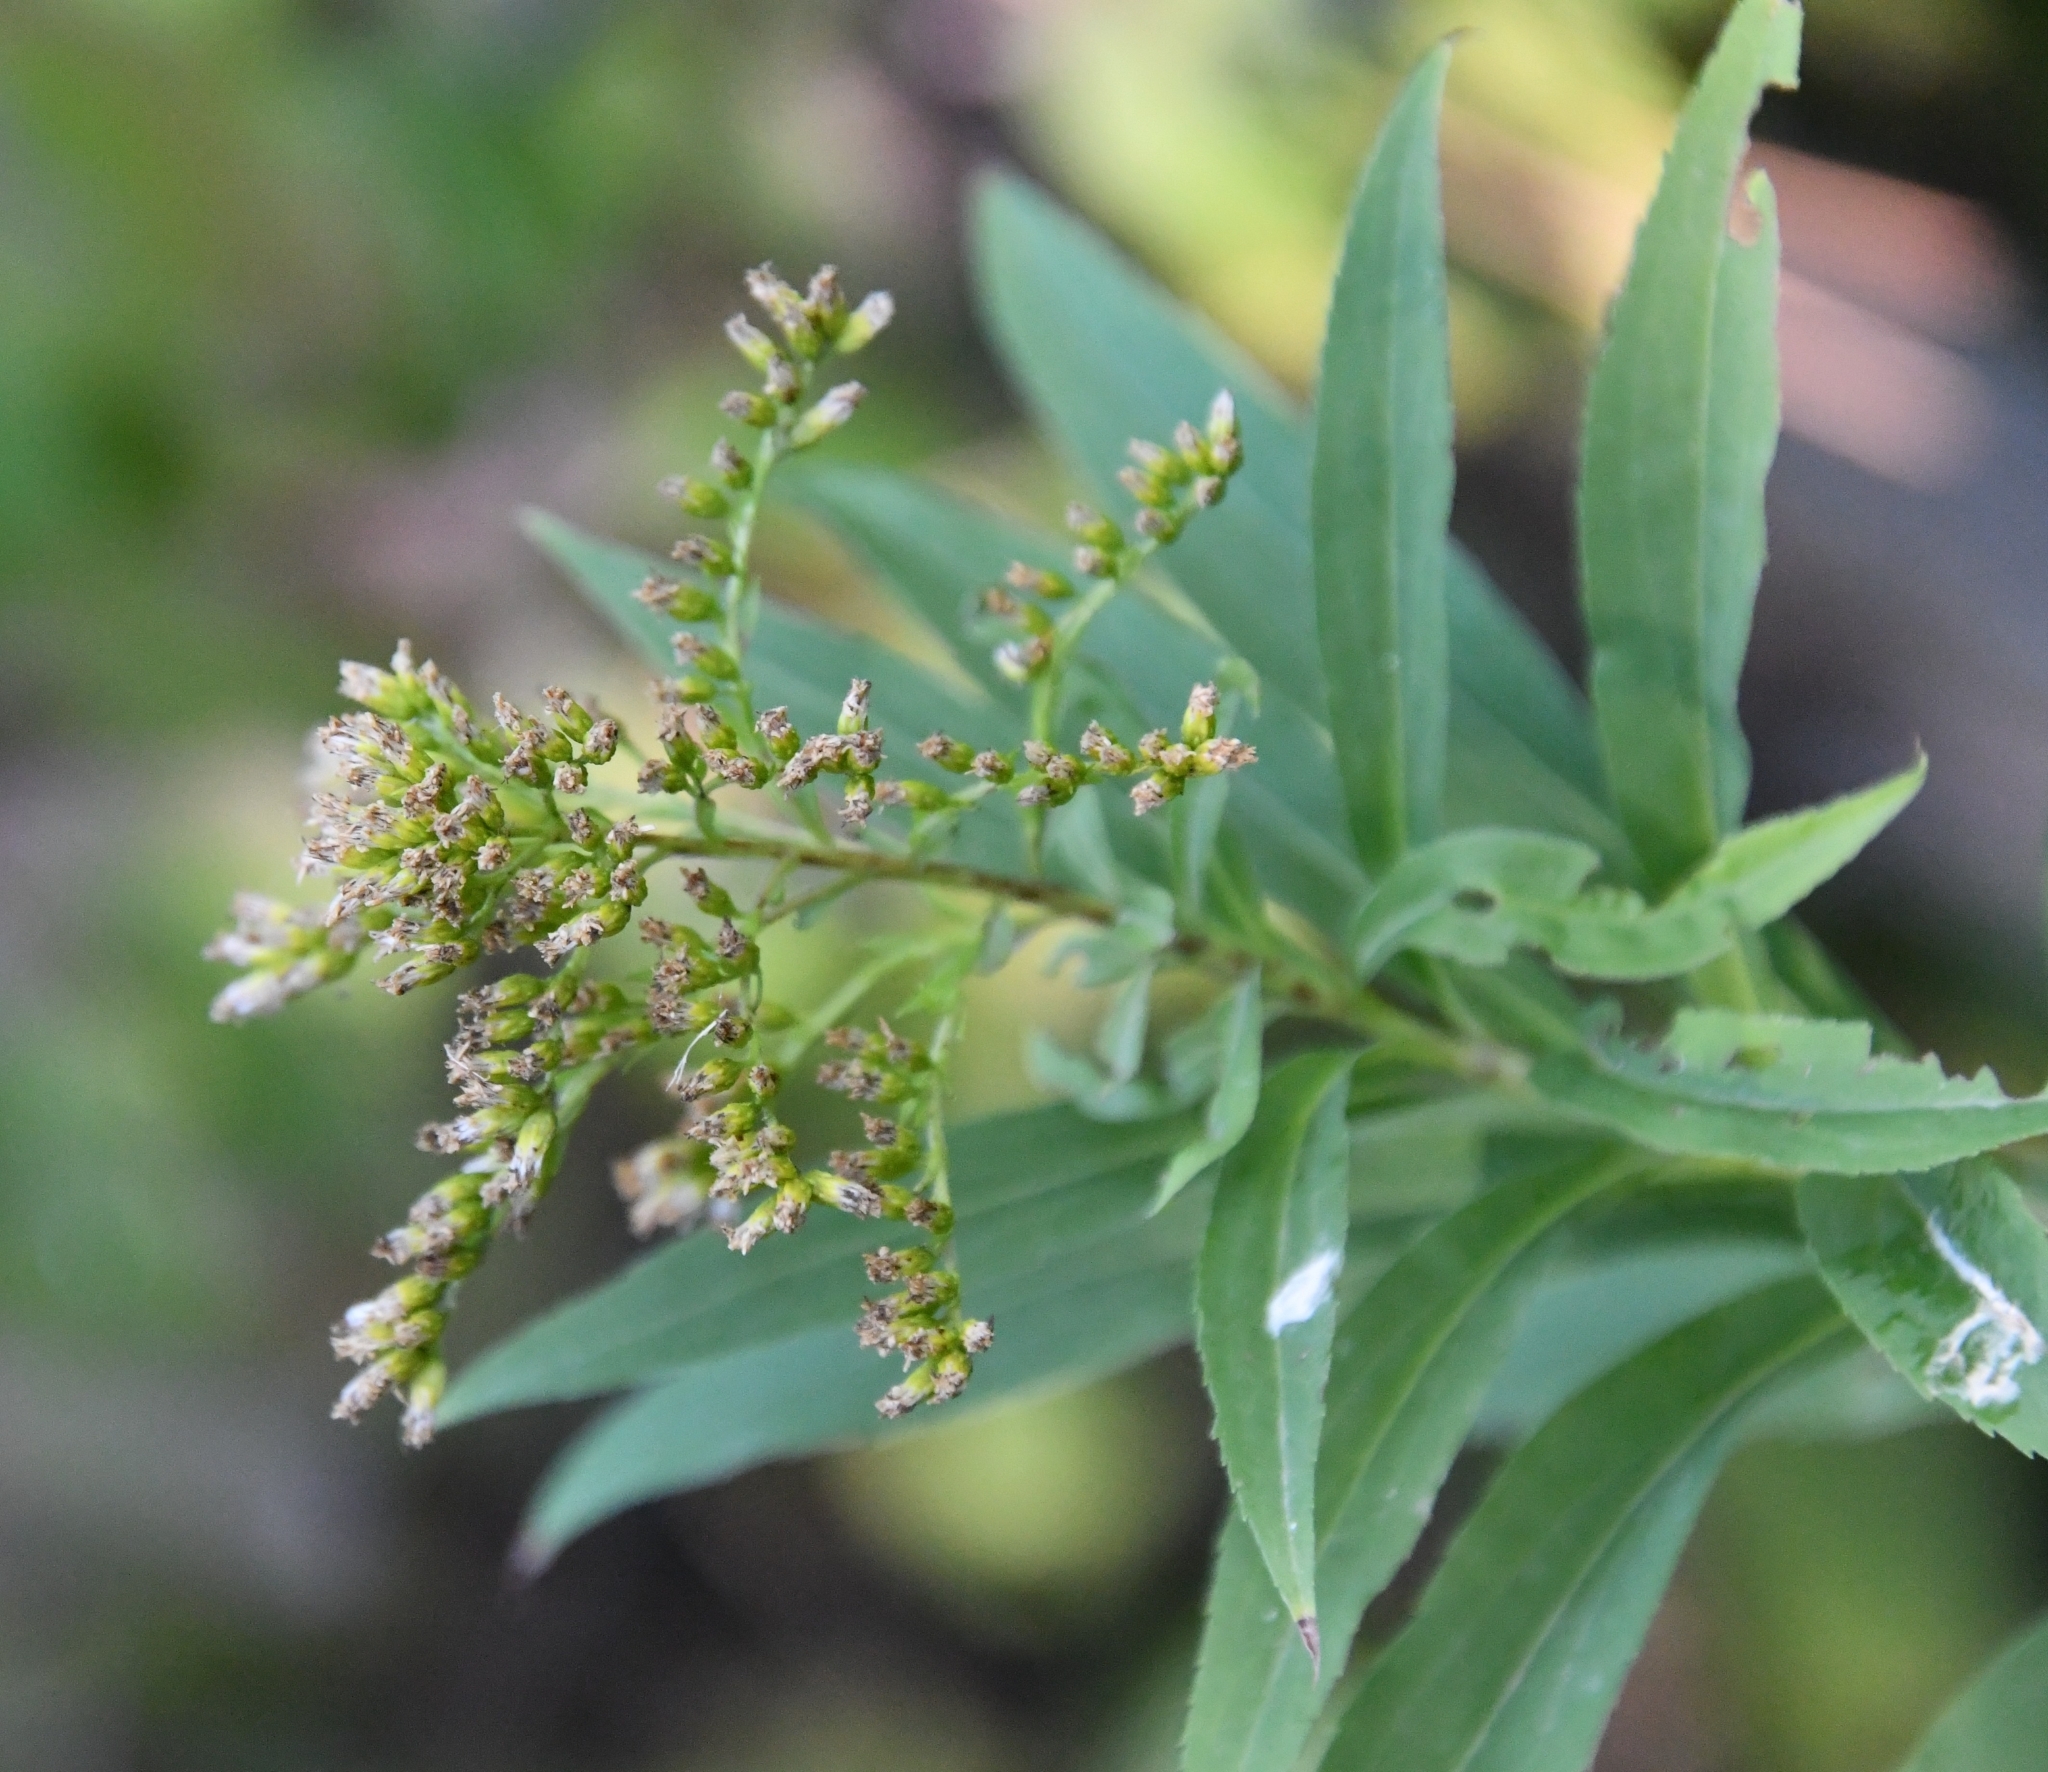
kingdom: Plantae
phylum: Tracheophyta
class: Magnoliopsida
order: Asterales
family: Asteraceae
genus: Solidago
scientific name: Solidago gigantea
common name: Giant goldenrod
